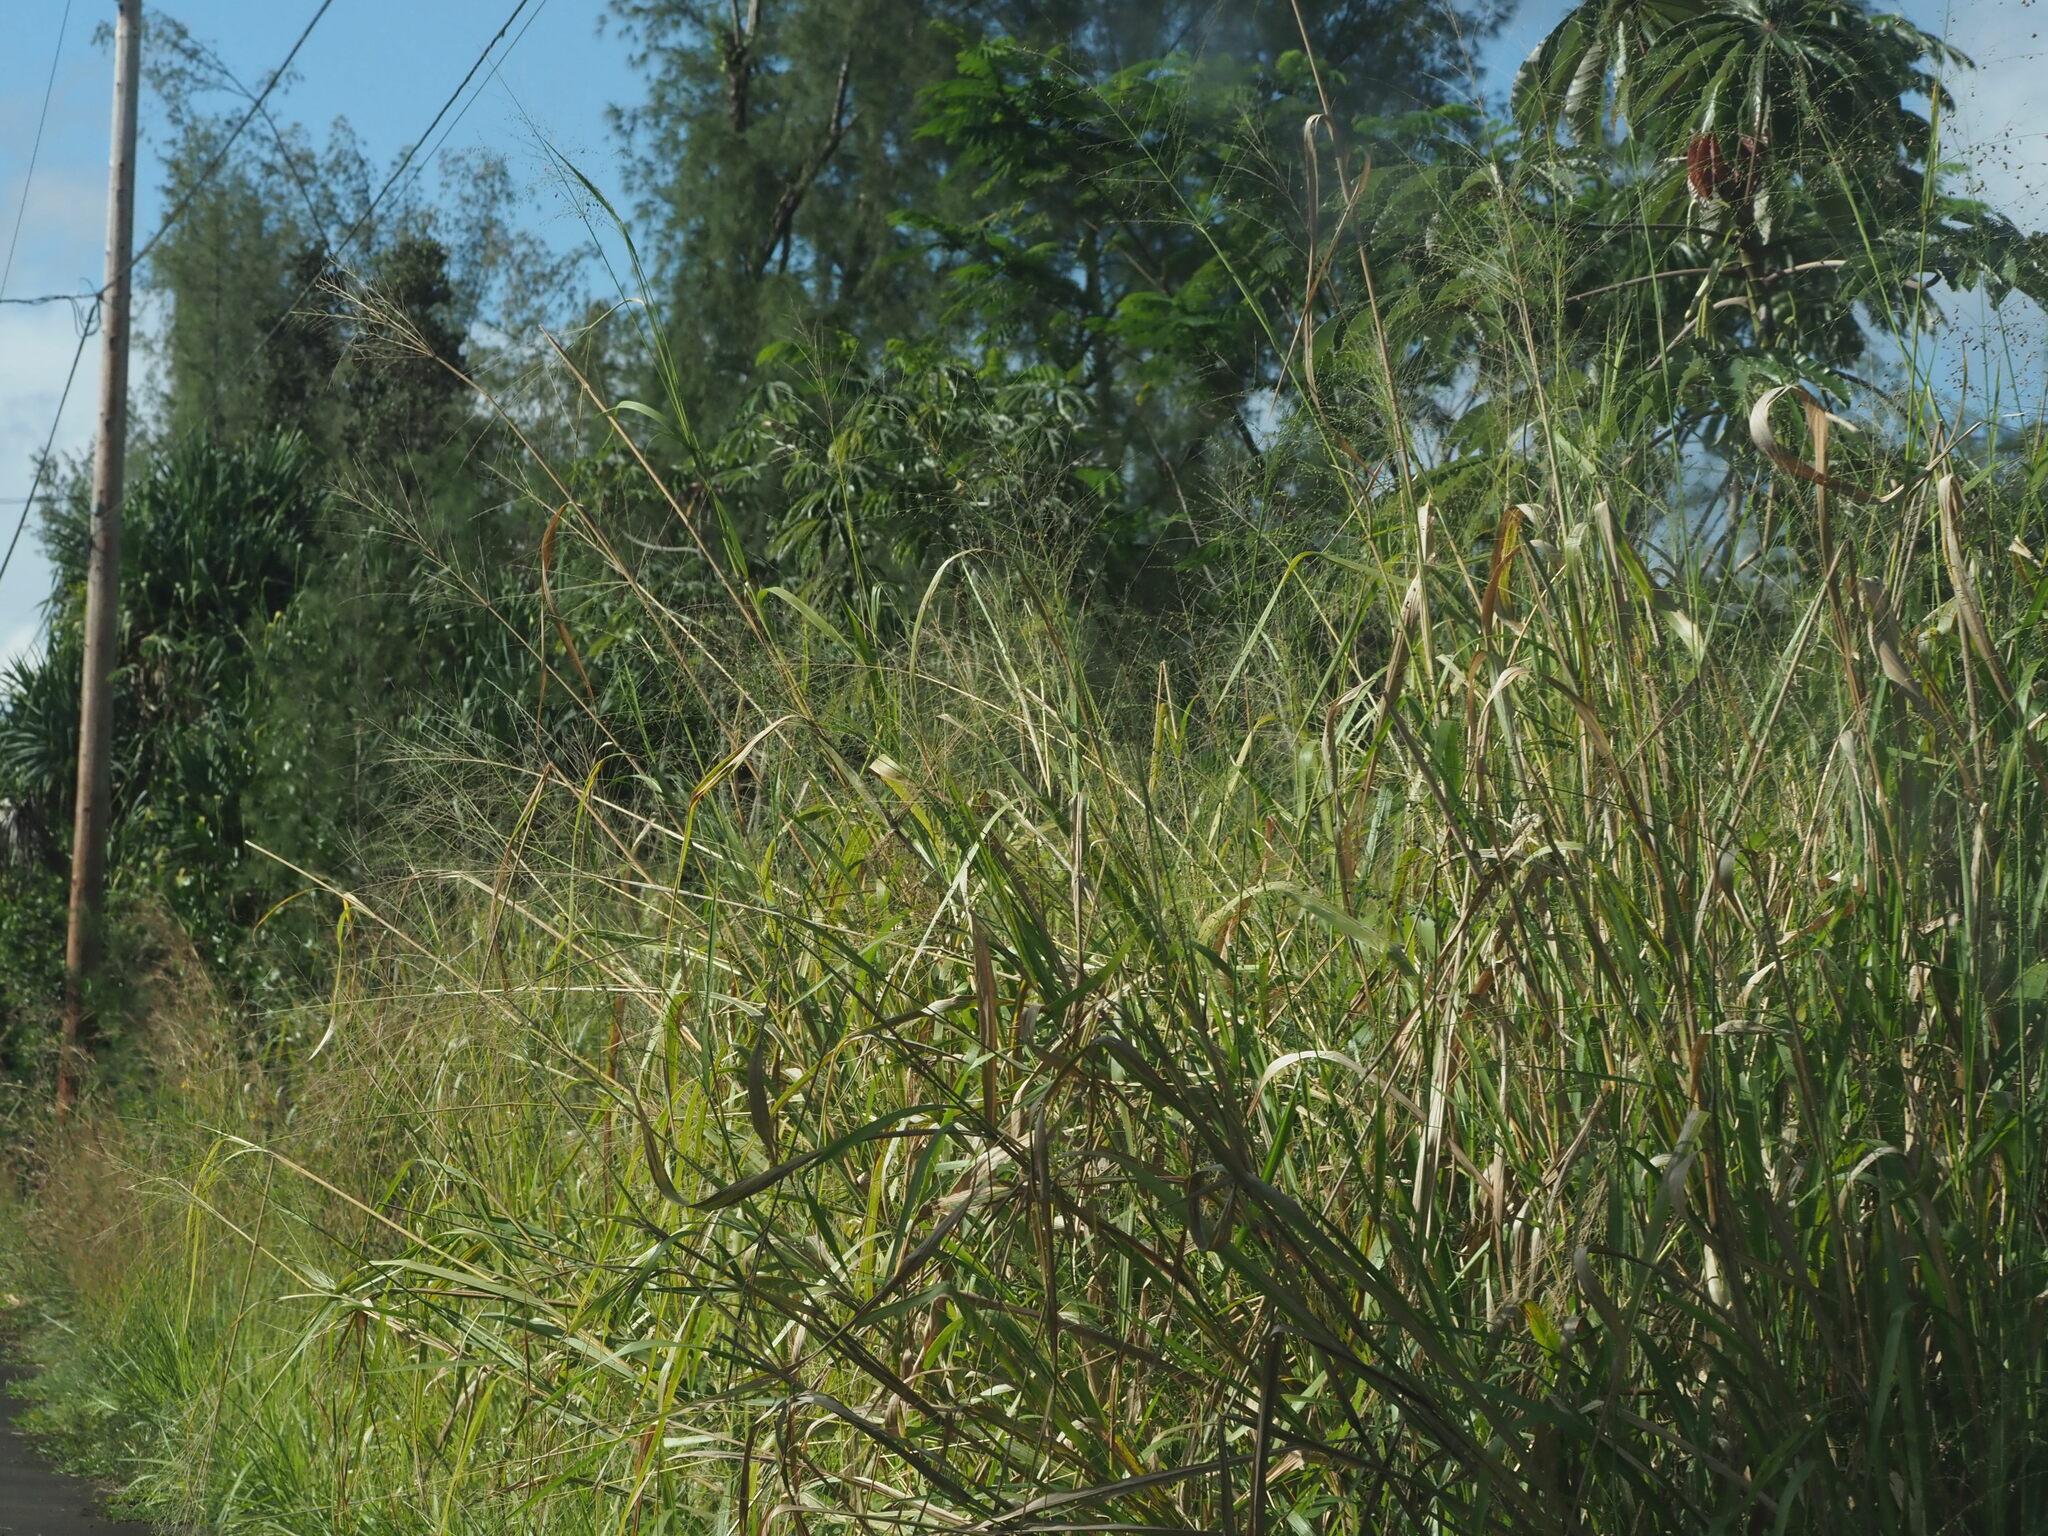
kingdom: Plantae
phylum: Tracheophyta
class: Liliopsida
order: Poales
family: Poaceae
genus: Megathyrsus
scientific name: Megathyrsus maximus
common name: Guineagrass
